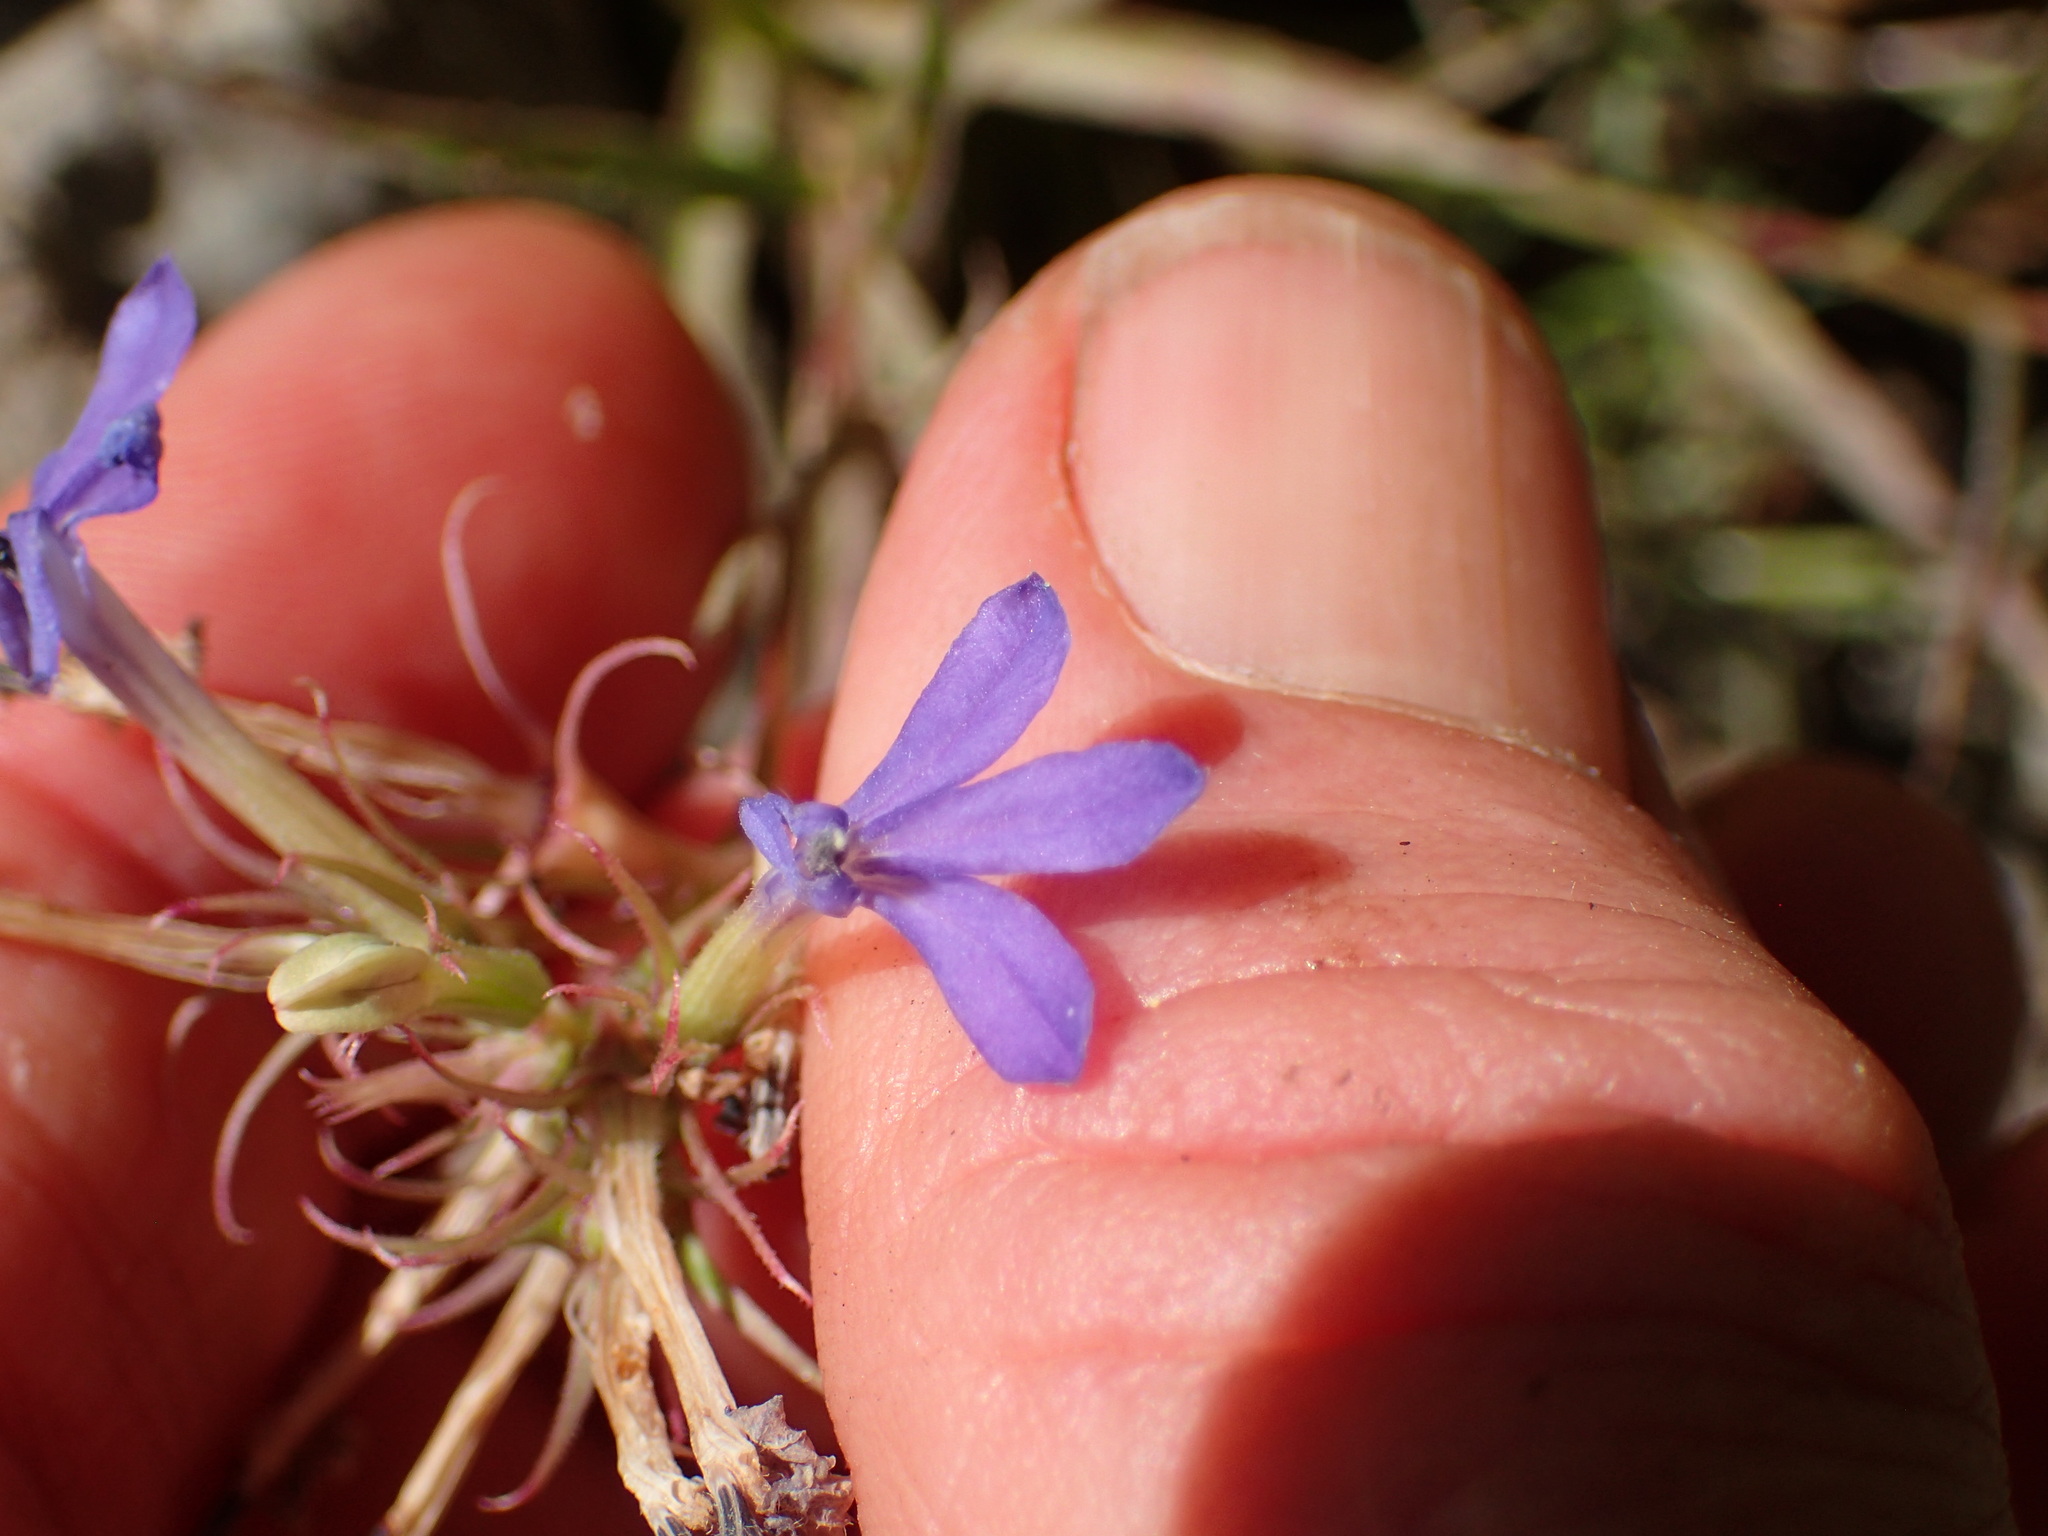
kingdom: Plantae
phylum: Tracheophyta
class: Magnoliopsida
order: Asterales
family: Campanulaceae
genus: Palmerella
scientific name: Palmerella debilis
